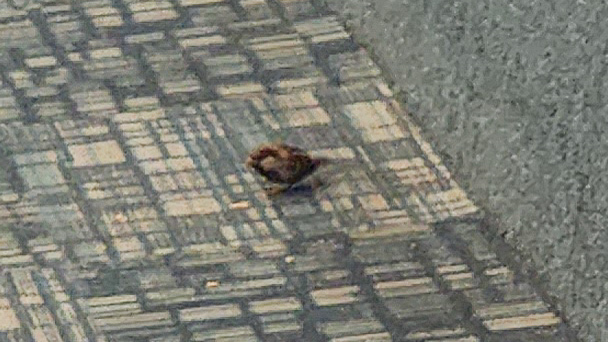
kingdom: Animalia
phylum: Chordata
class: Aves
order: Passeriformes
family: Passeridae
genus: Passer
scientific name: Passer domesticus
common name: House sparrow
